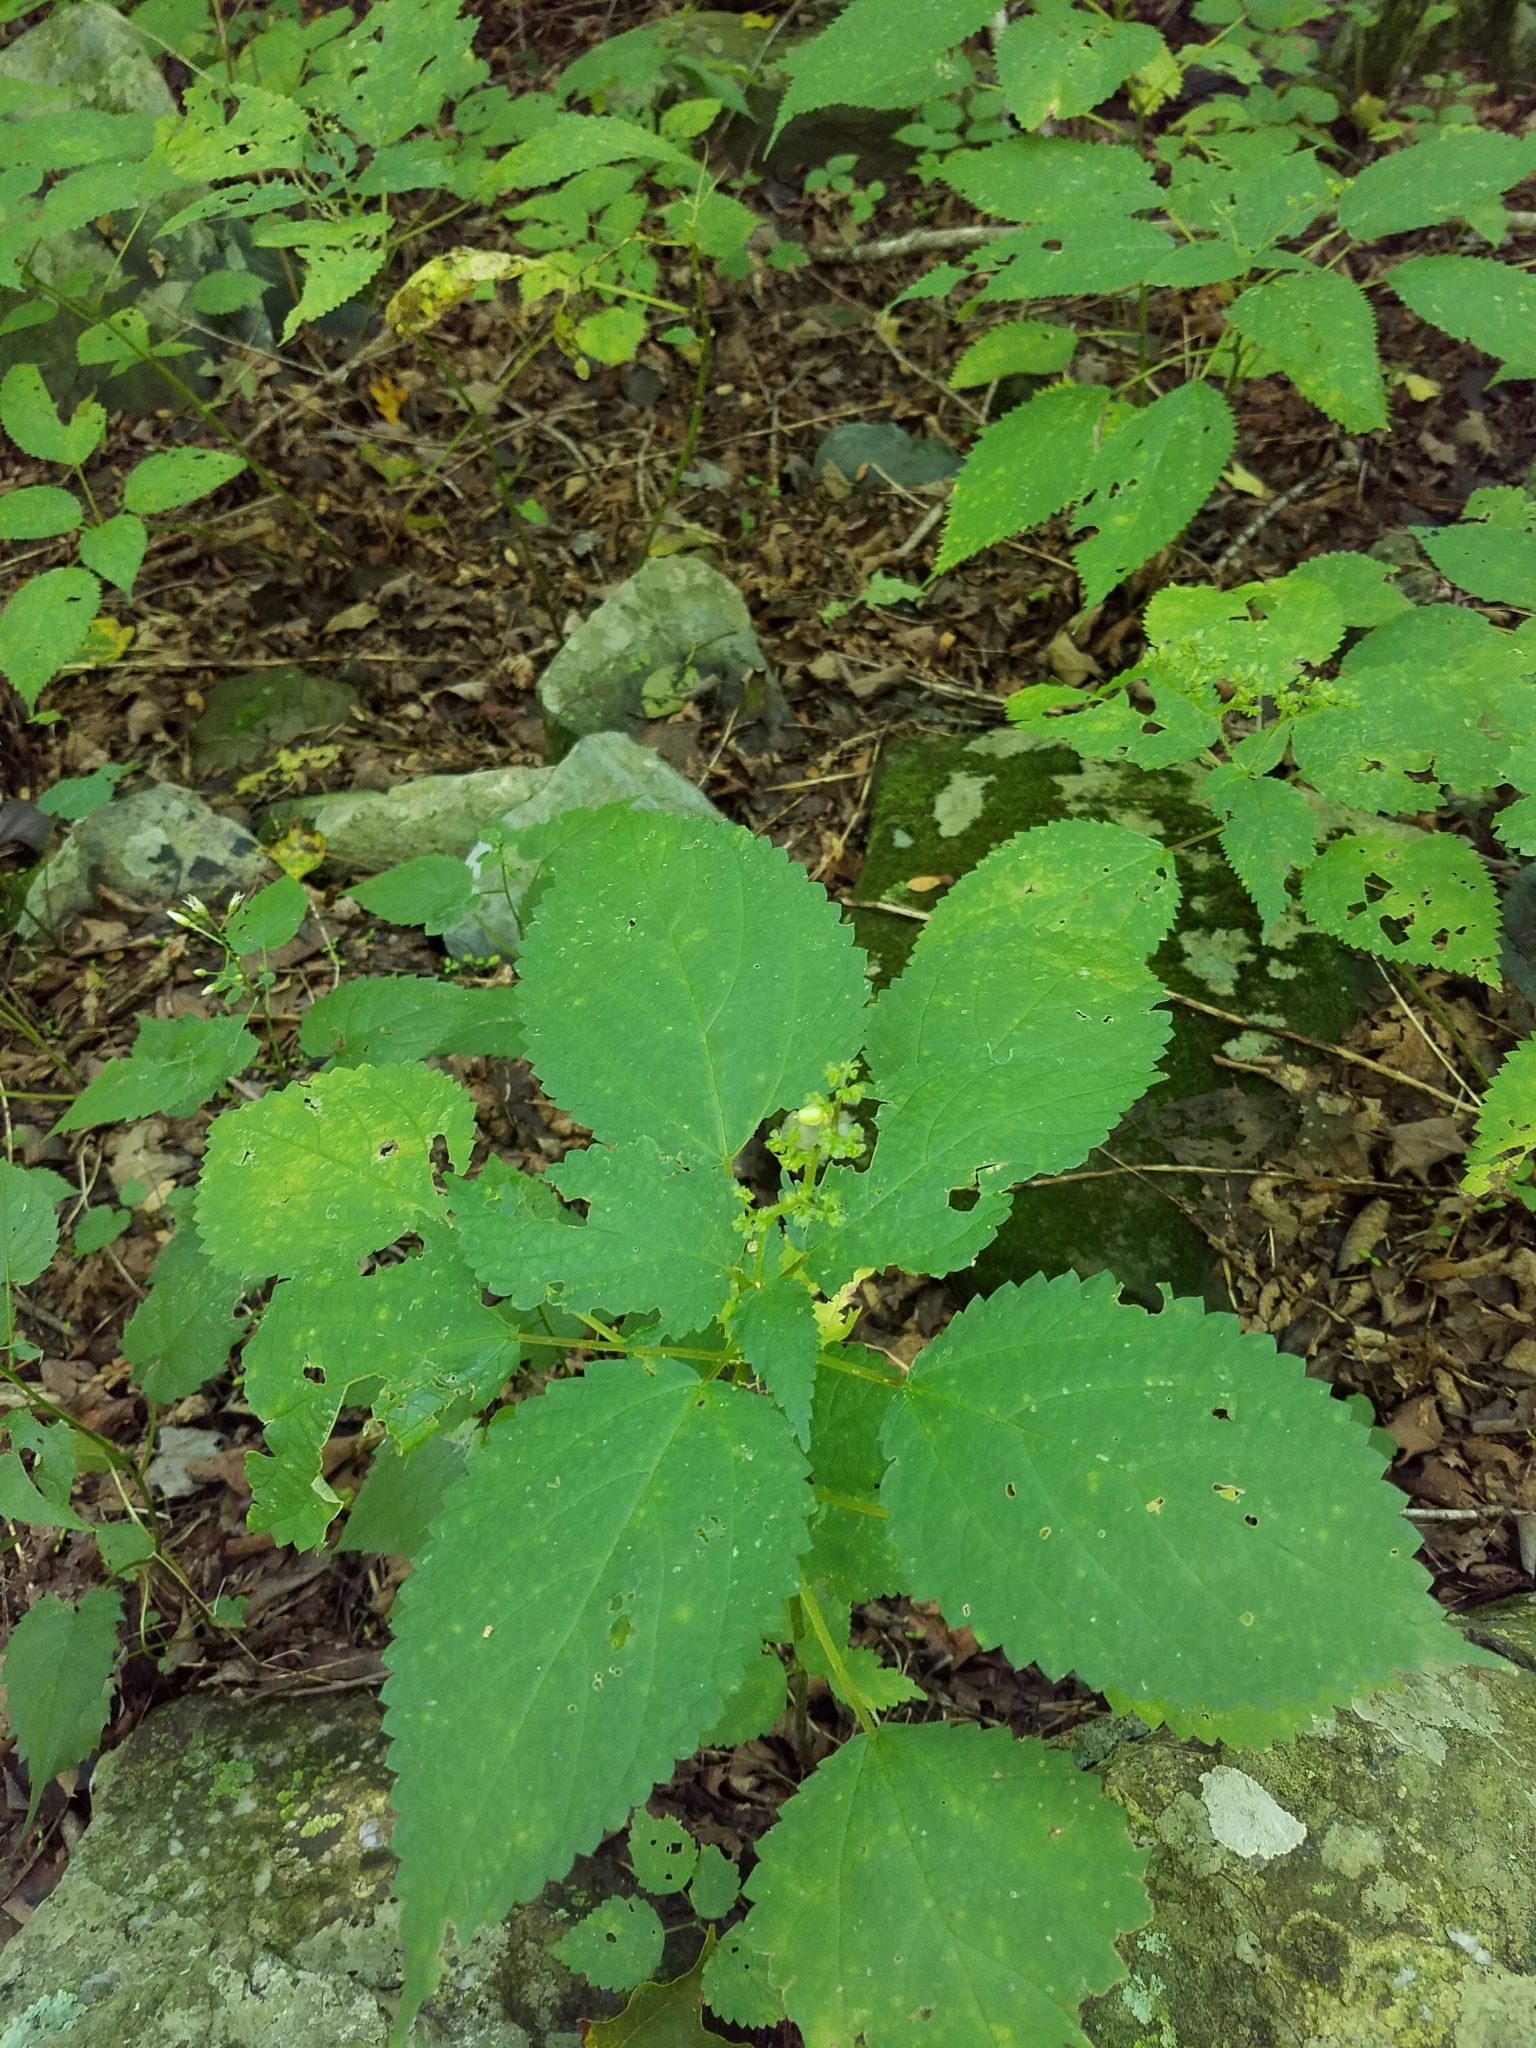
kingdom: Plantae
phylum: Tracheophyta
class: Magnoliopsida
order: Rosales
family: Urticaceae
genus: Laportea
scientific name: Laportea canadensis
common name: Canada nettle
